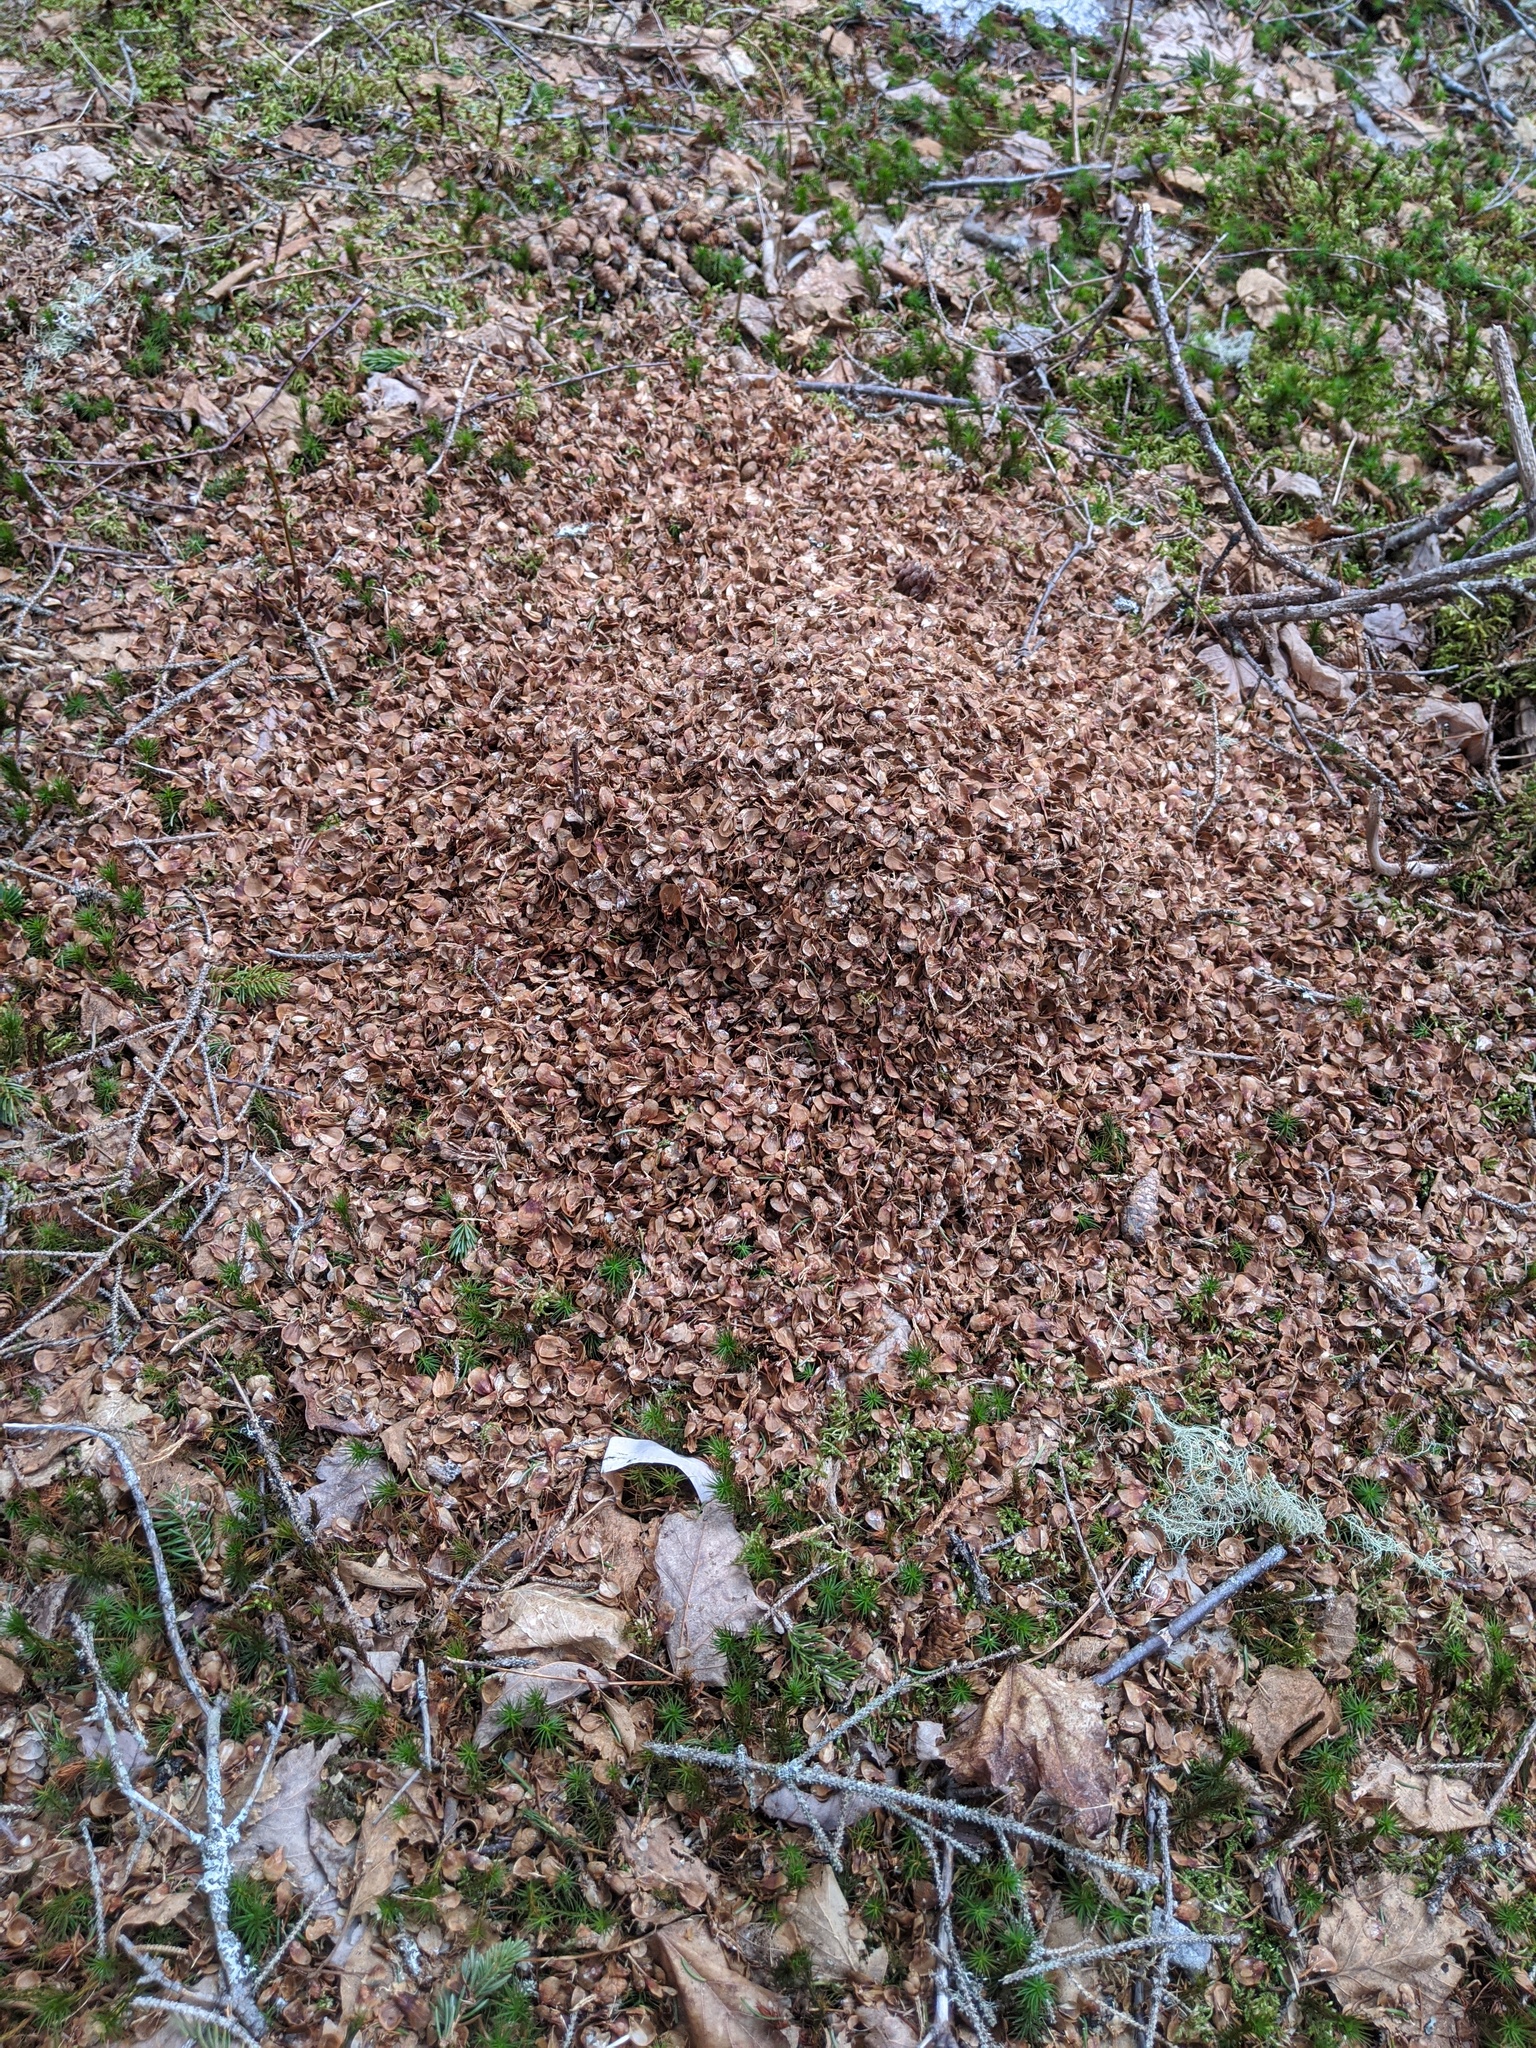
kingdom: Animalia
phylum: Chordata
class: Mammalia
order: Rodentia
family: Sciuridae
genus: Tamiasciurus
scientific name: Tamiasciurus hudsonicus
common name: Red squirrel
